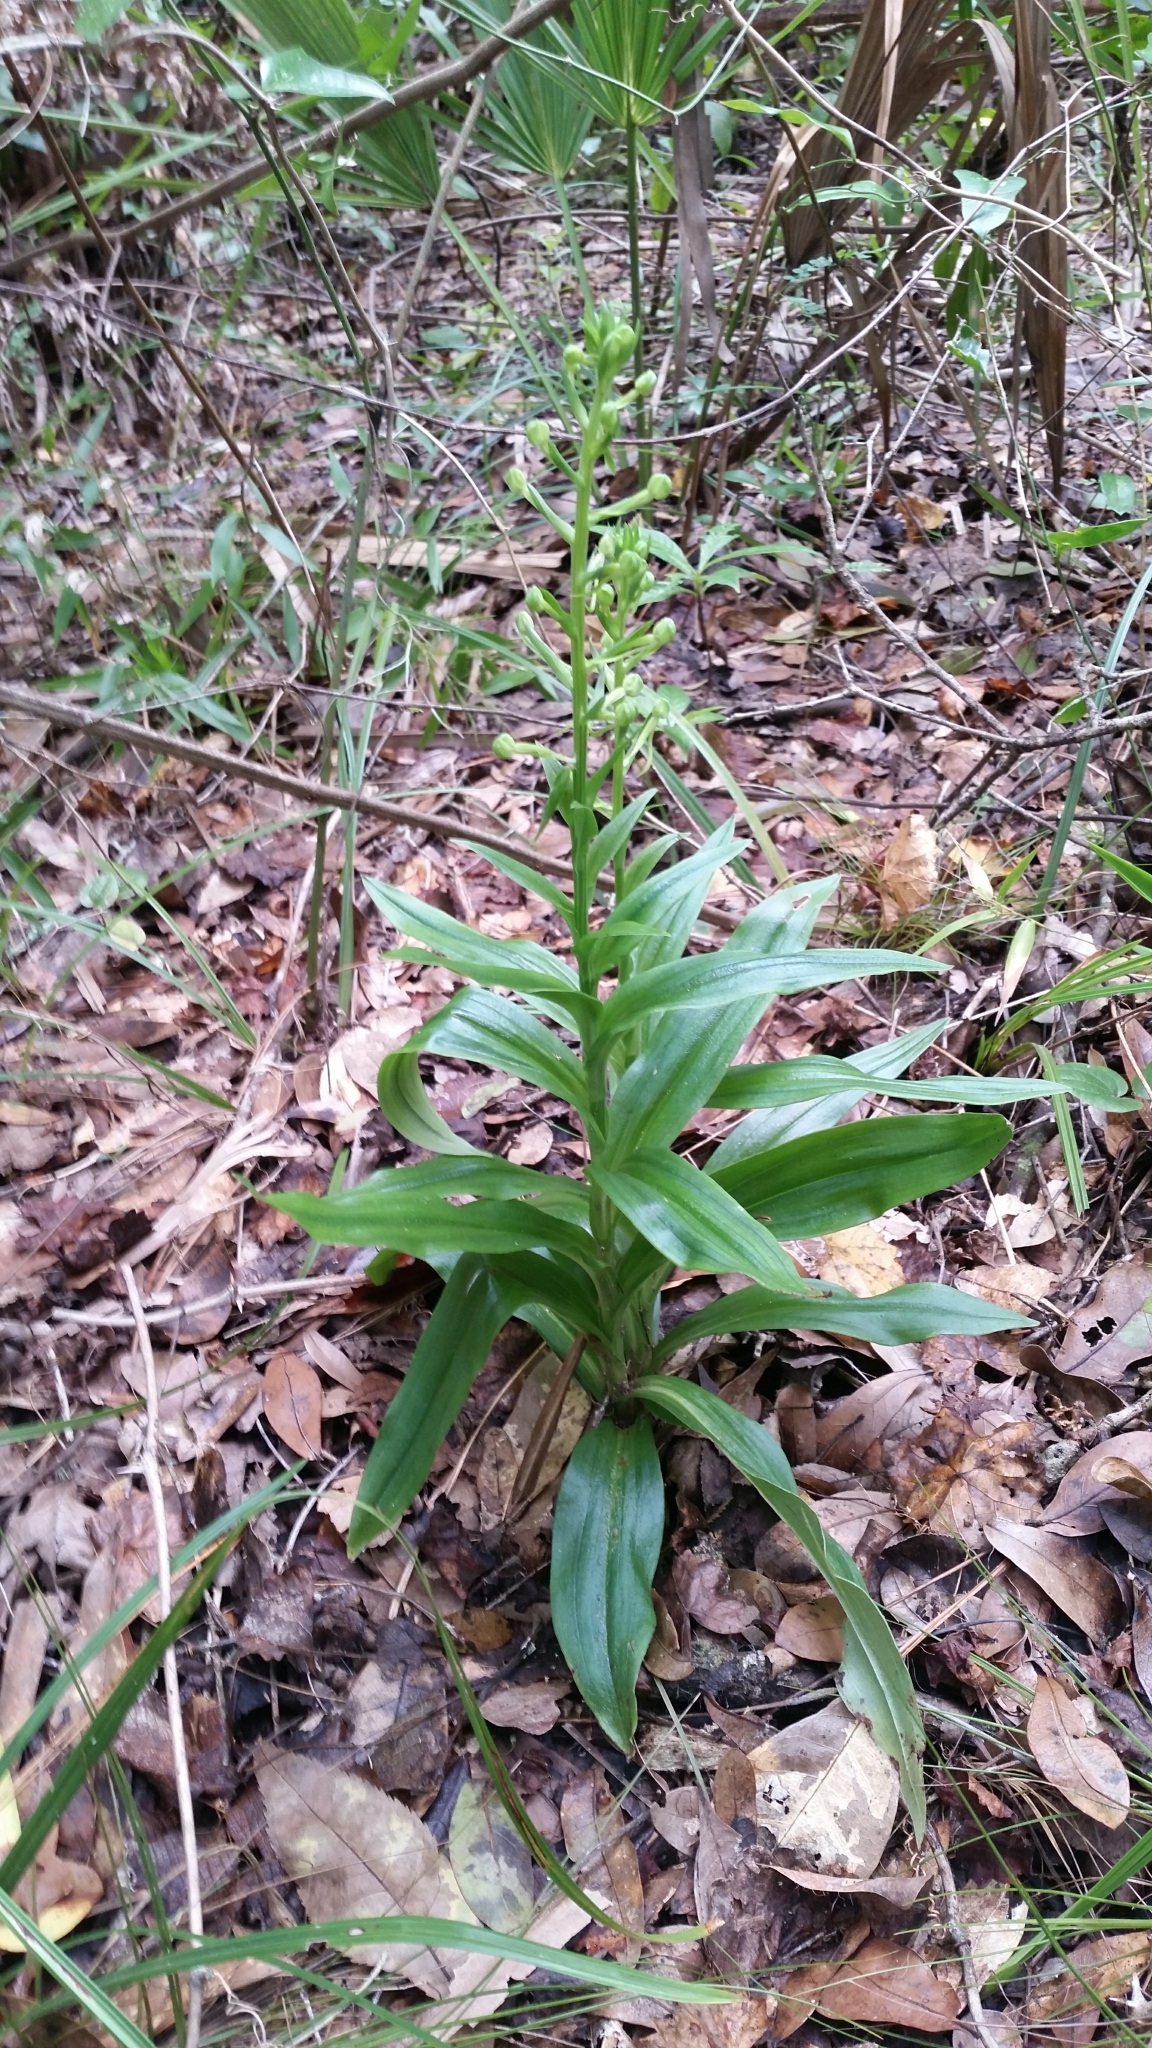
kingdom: Plantae
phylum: Tracheophyta
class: Liliopsida
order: Asparagales
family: Orchidaceae
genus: Habenaria
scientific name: Habenaria floribunda
